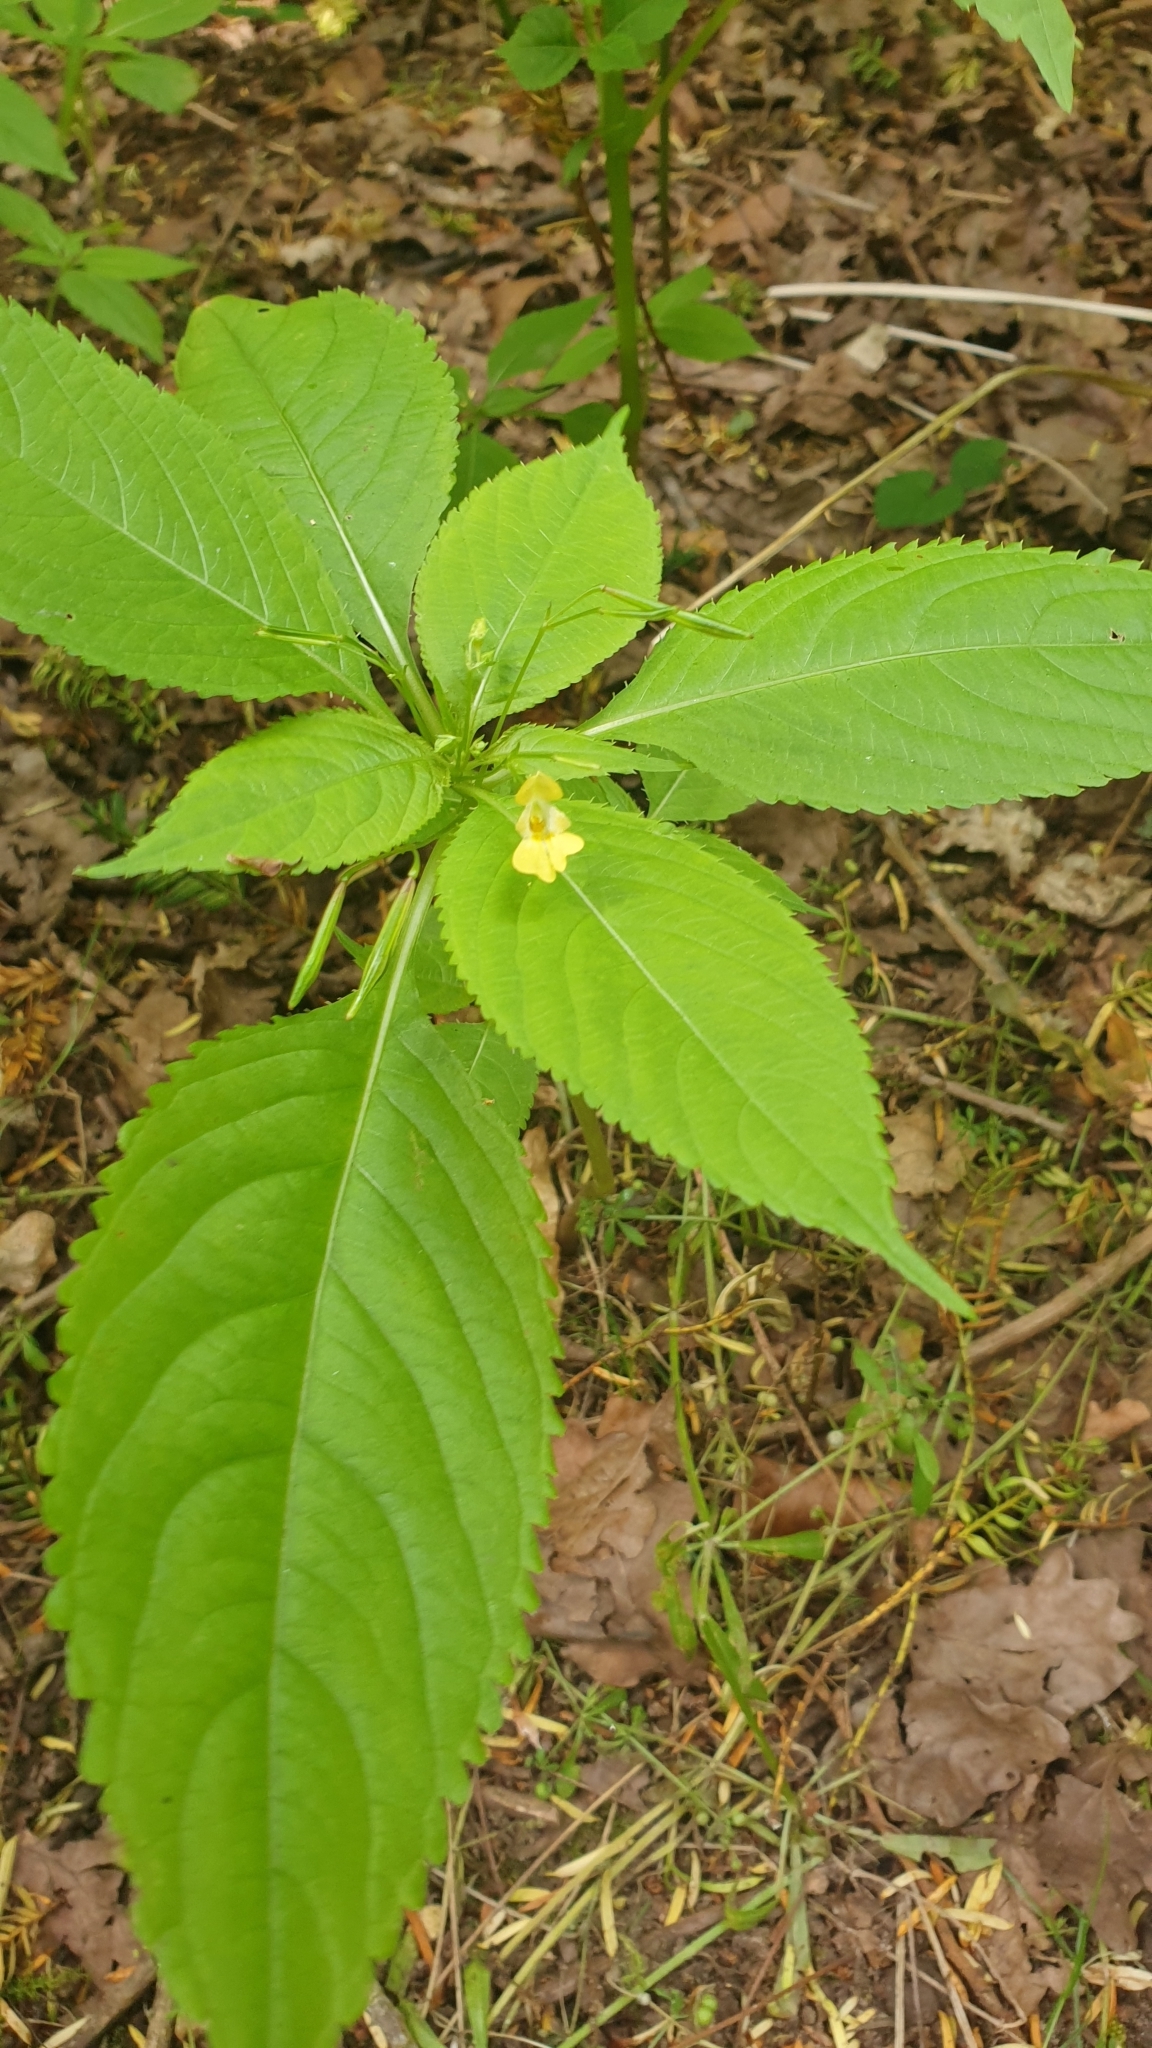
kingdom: Plantae
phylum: Tracheophyta
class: Magnoliopsida
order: Ericales
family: Balsaminaceae
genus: Impatiens
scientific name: Impatiens parviflora
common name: Small balsam
